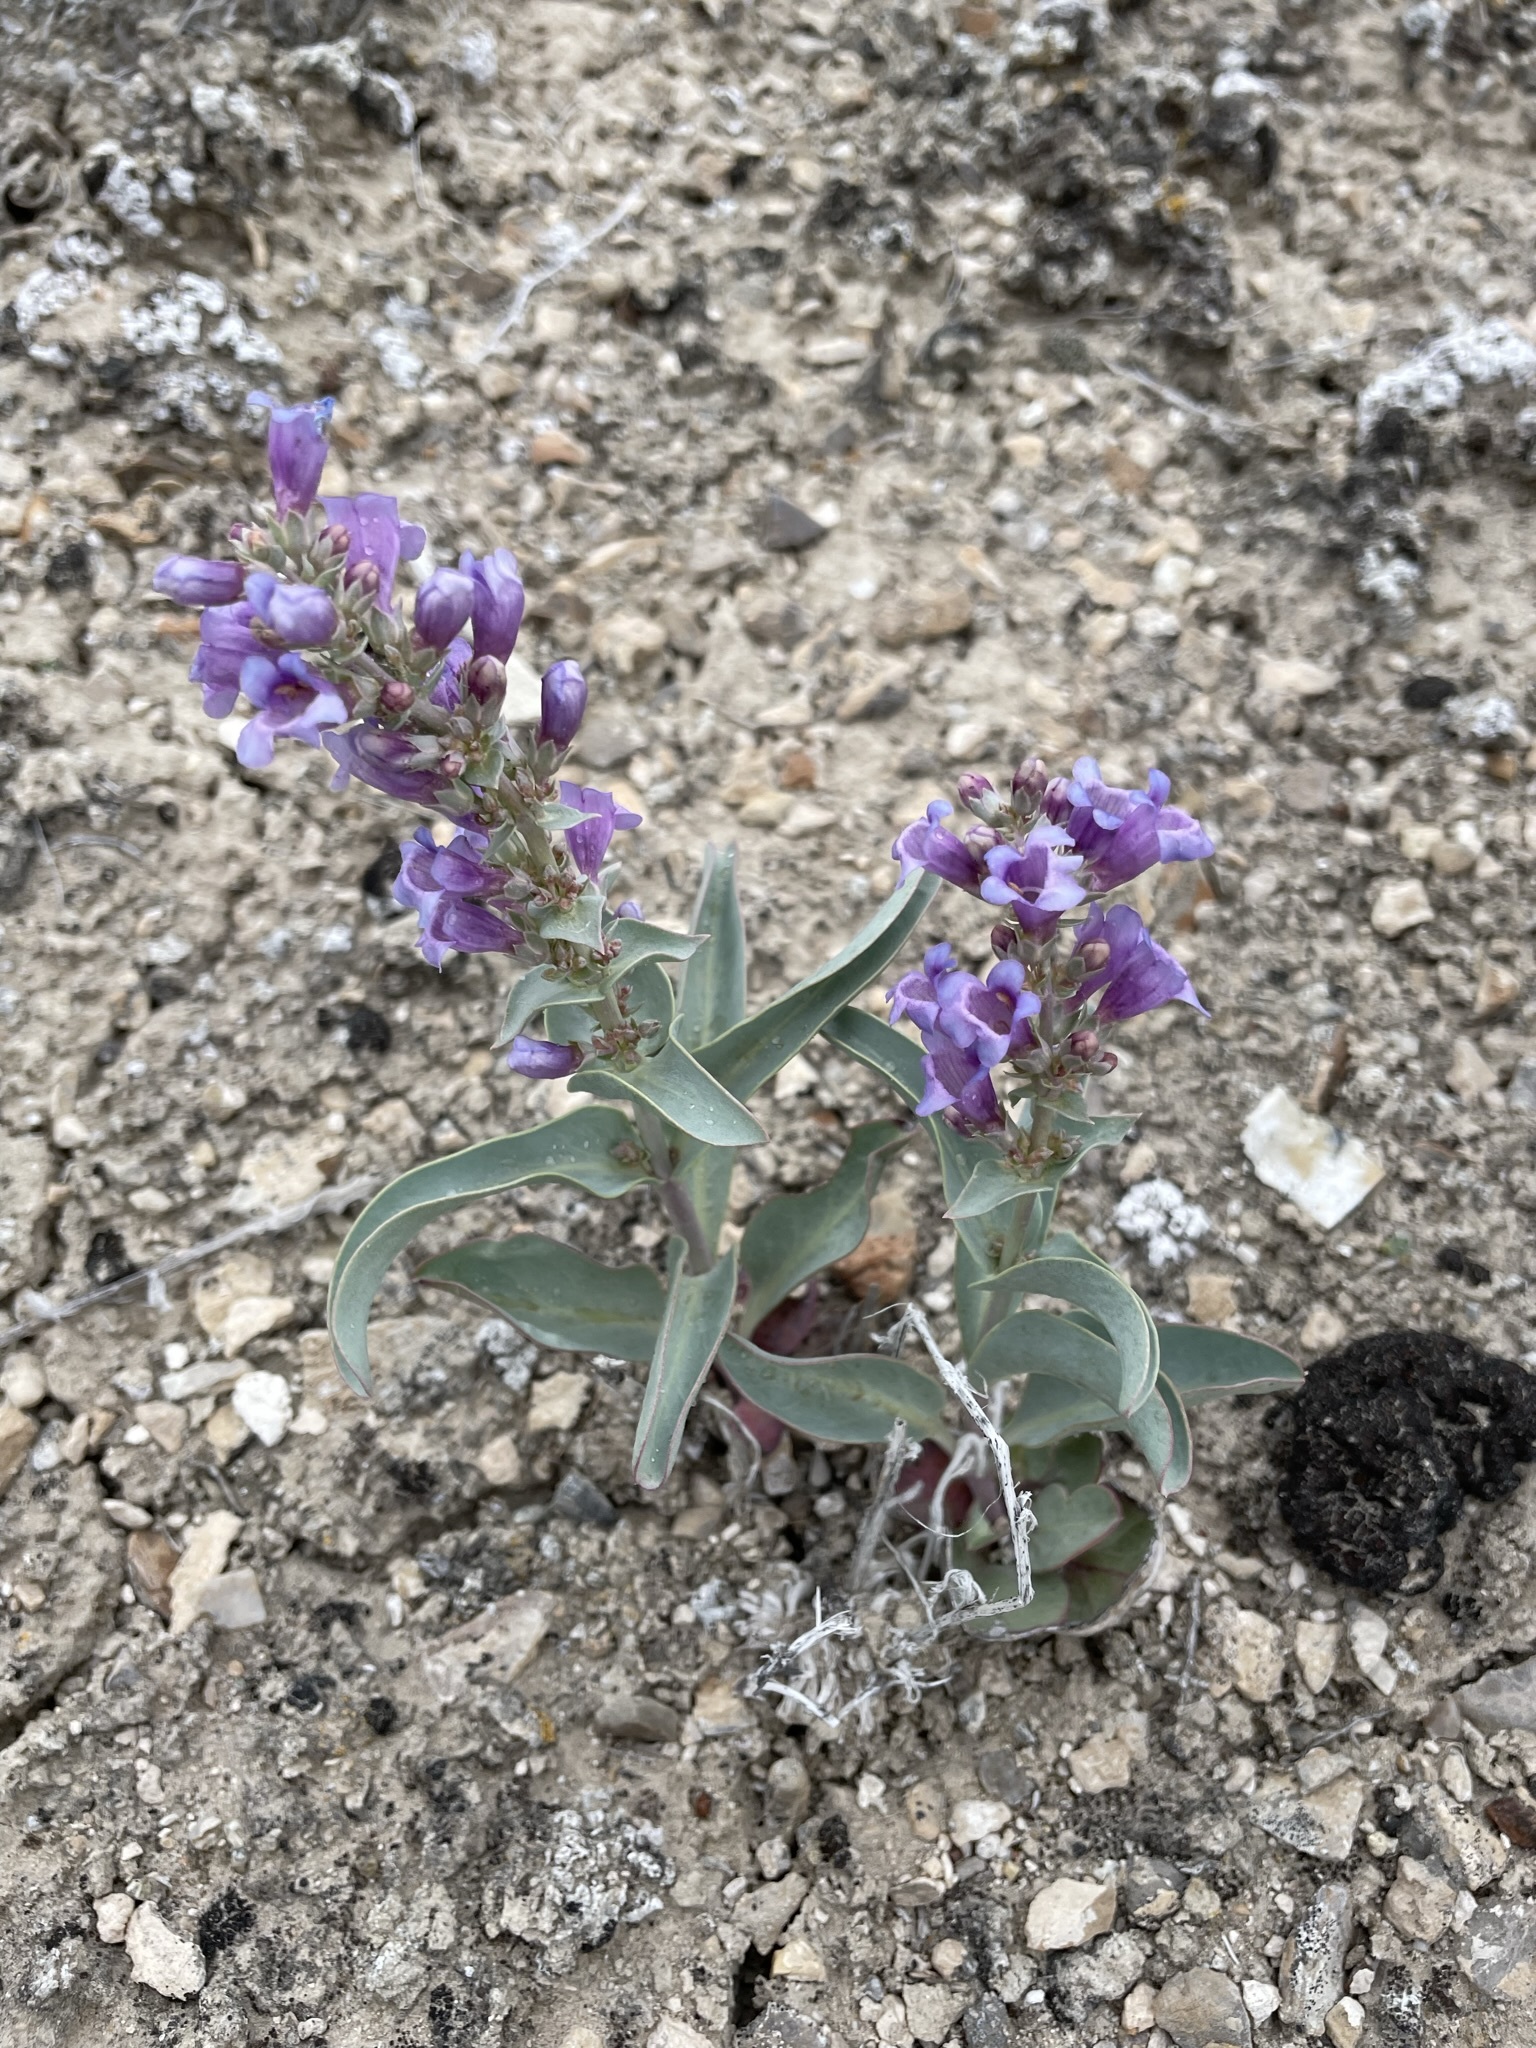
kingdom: Plantae
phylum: Tracheophyta
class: Magnoliopsida
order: Lamiales
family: Plantaginaceae
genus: Penstemon
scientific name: Penstemon immanifestus
